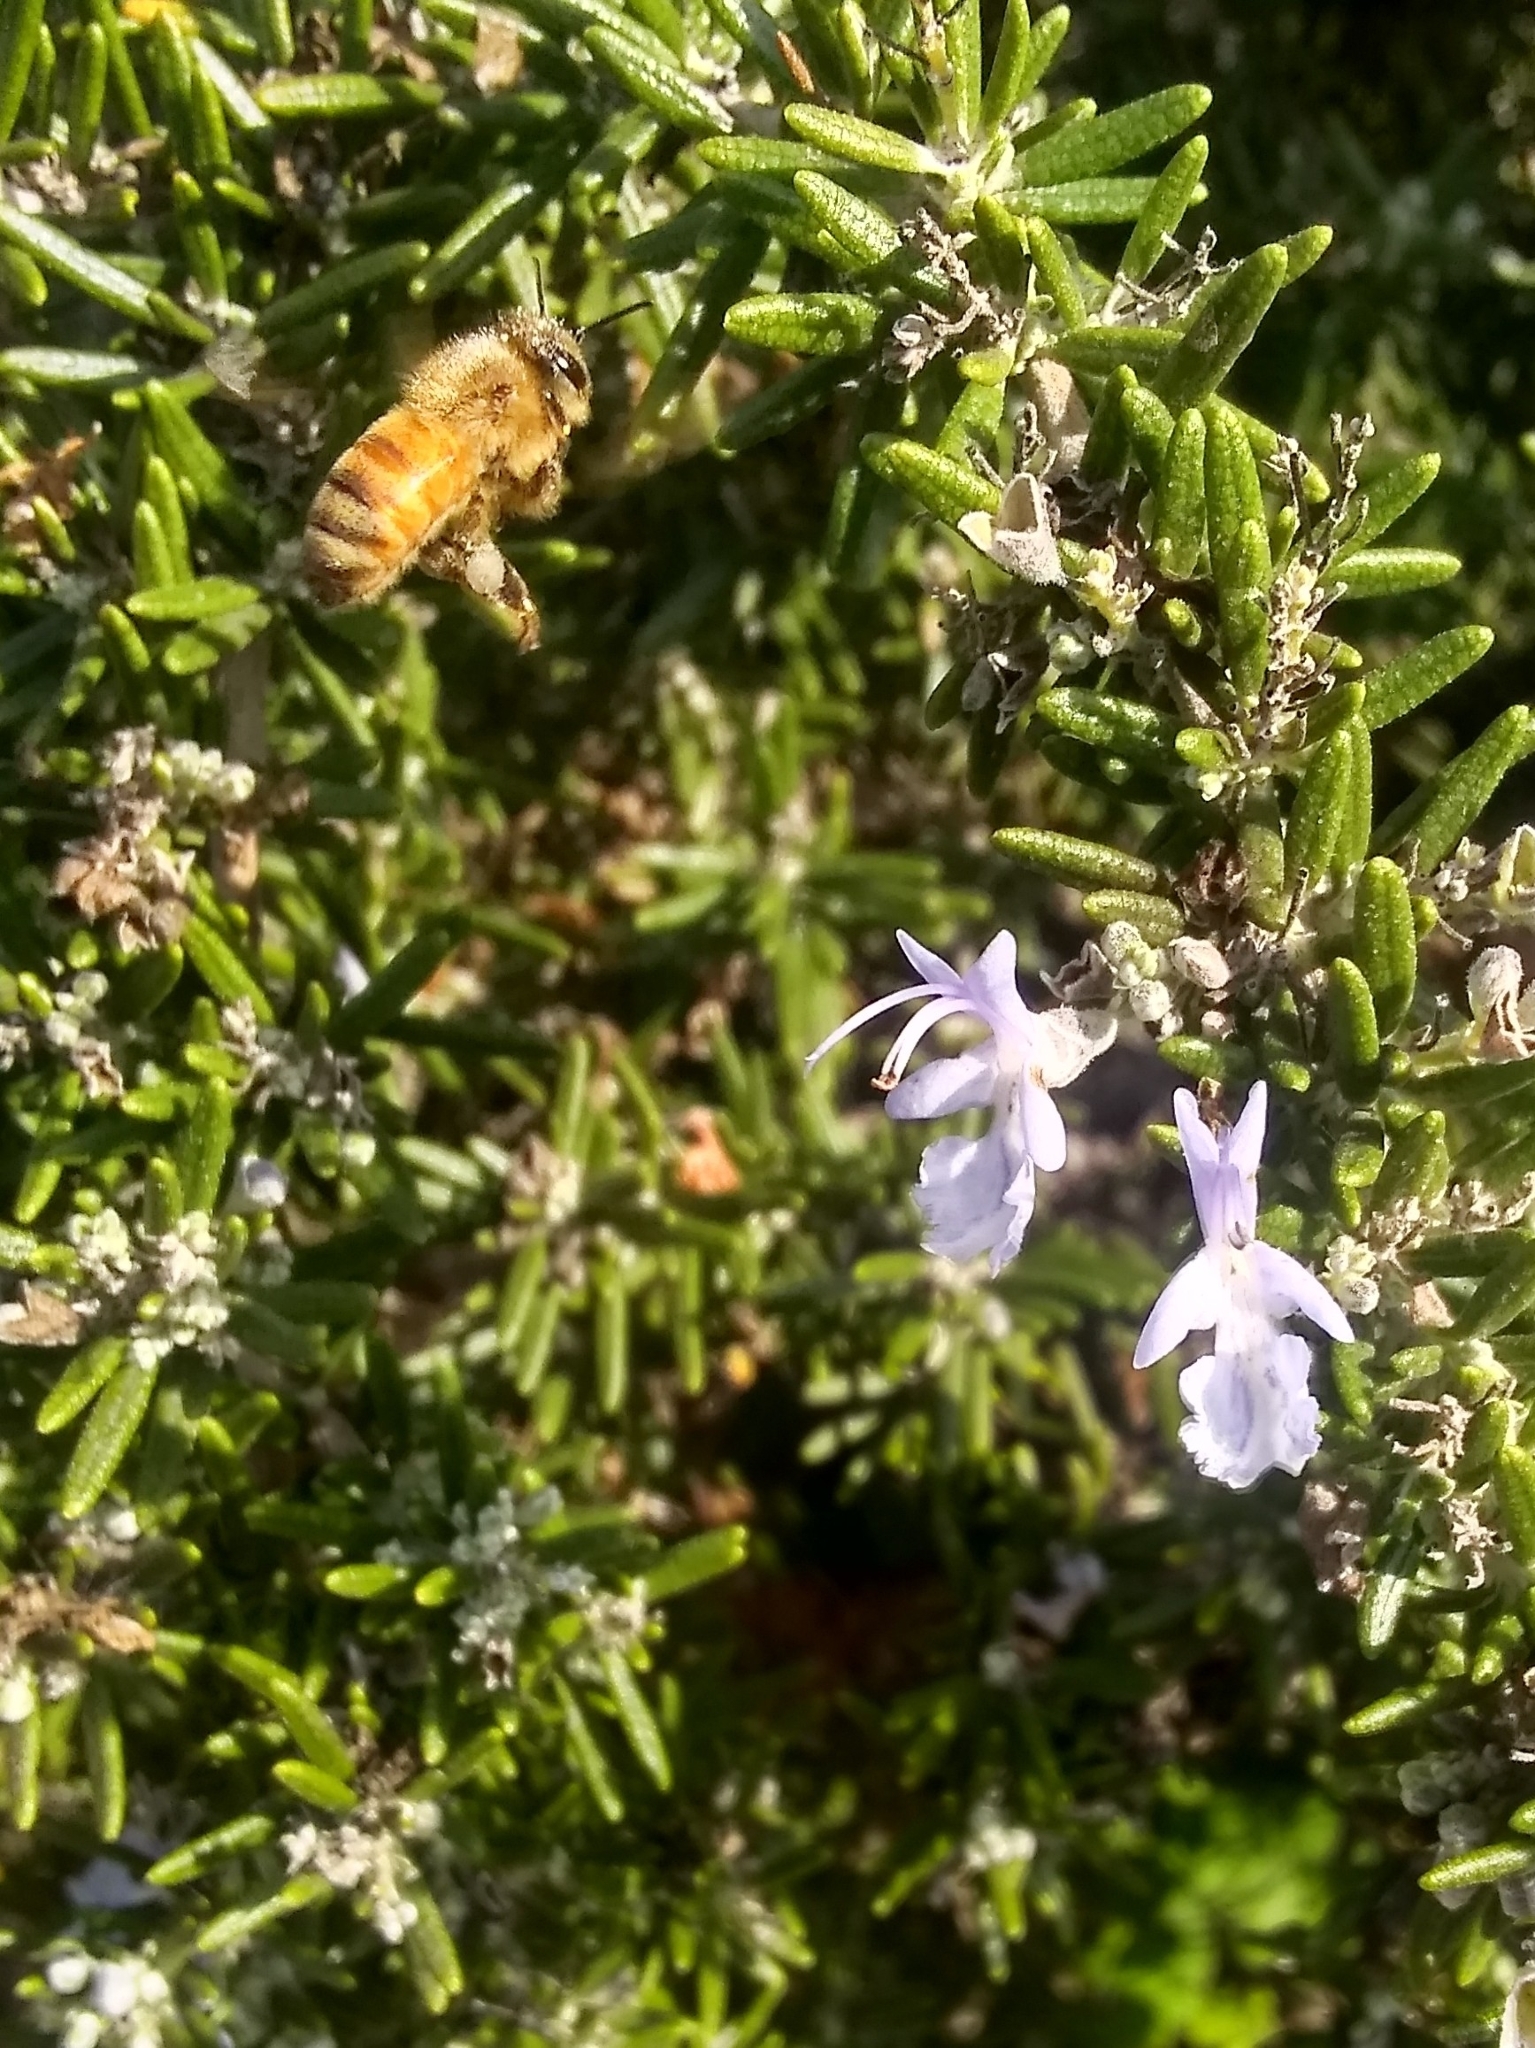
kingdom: Animalia
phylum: Arthropoda
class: Insecta
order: Hymenoptera
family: Apidae
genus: Apis
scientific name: Apis mellifera
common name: Honey bee
